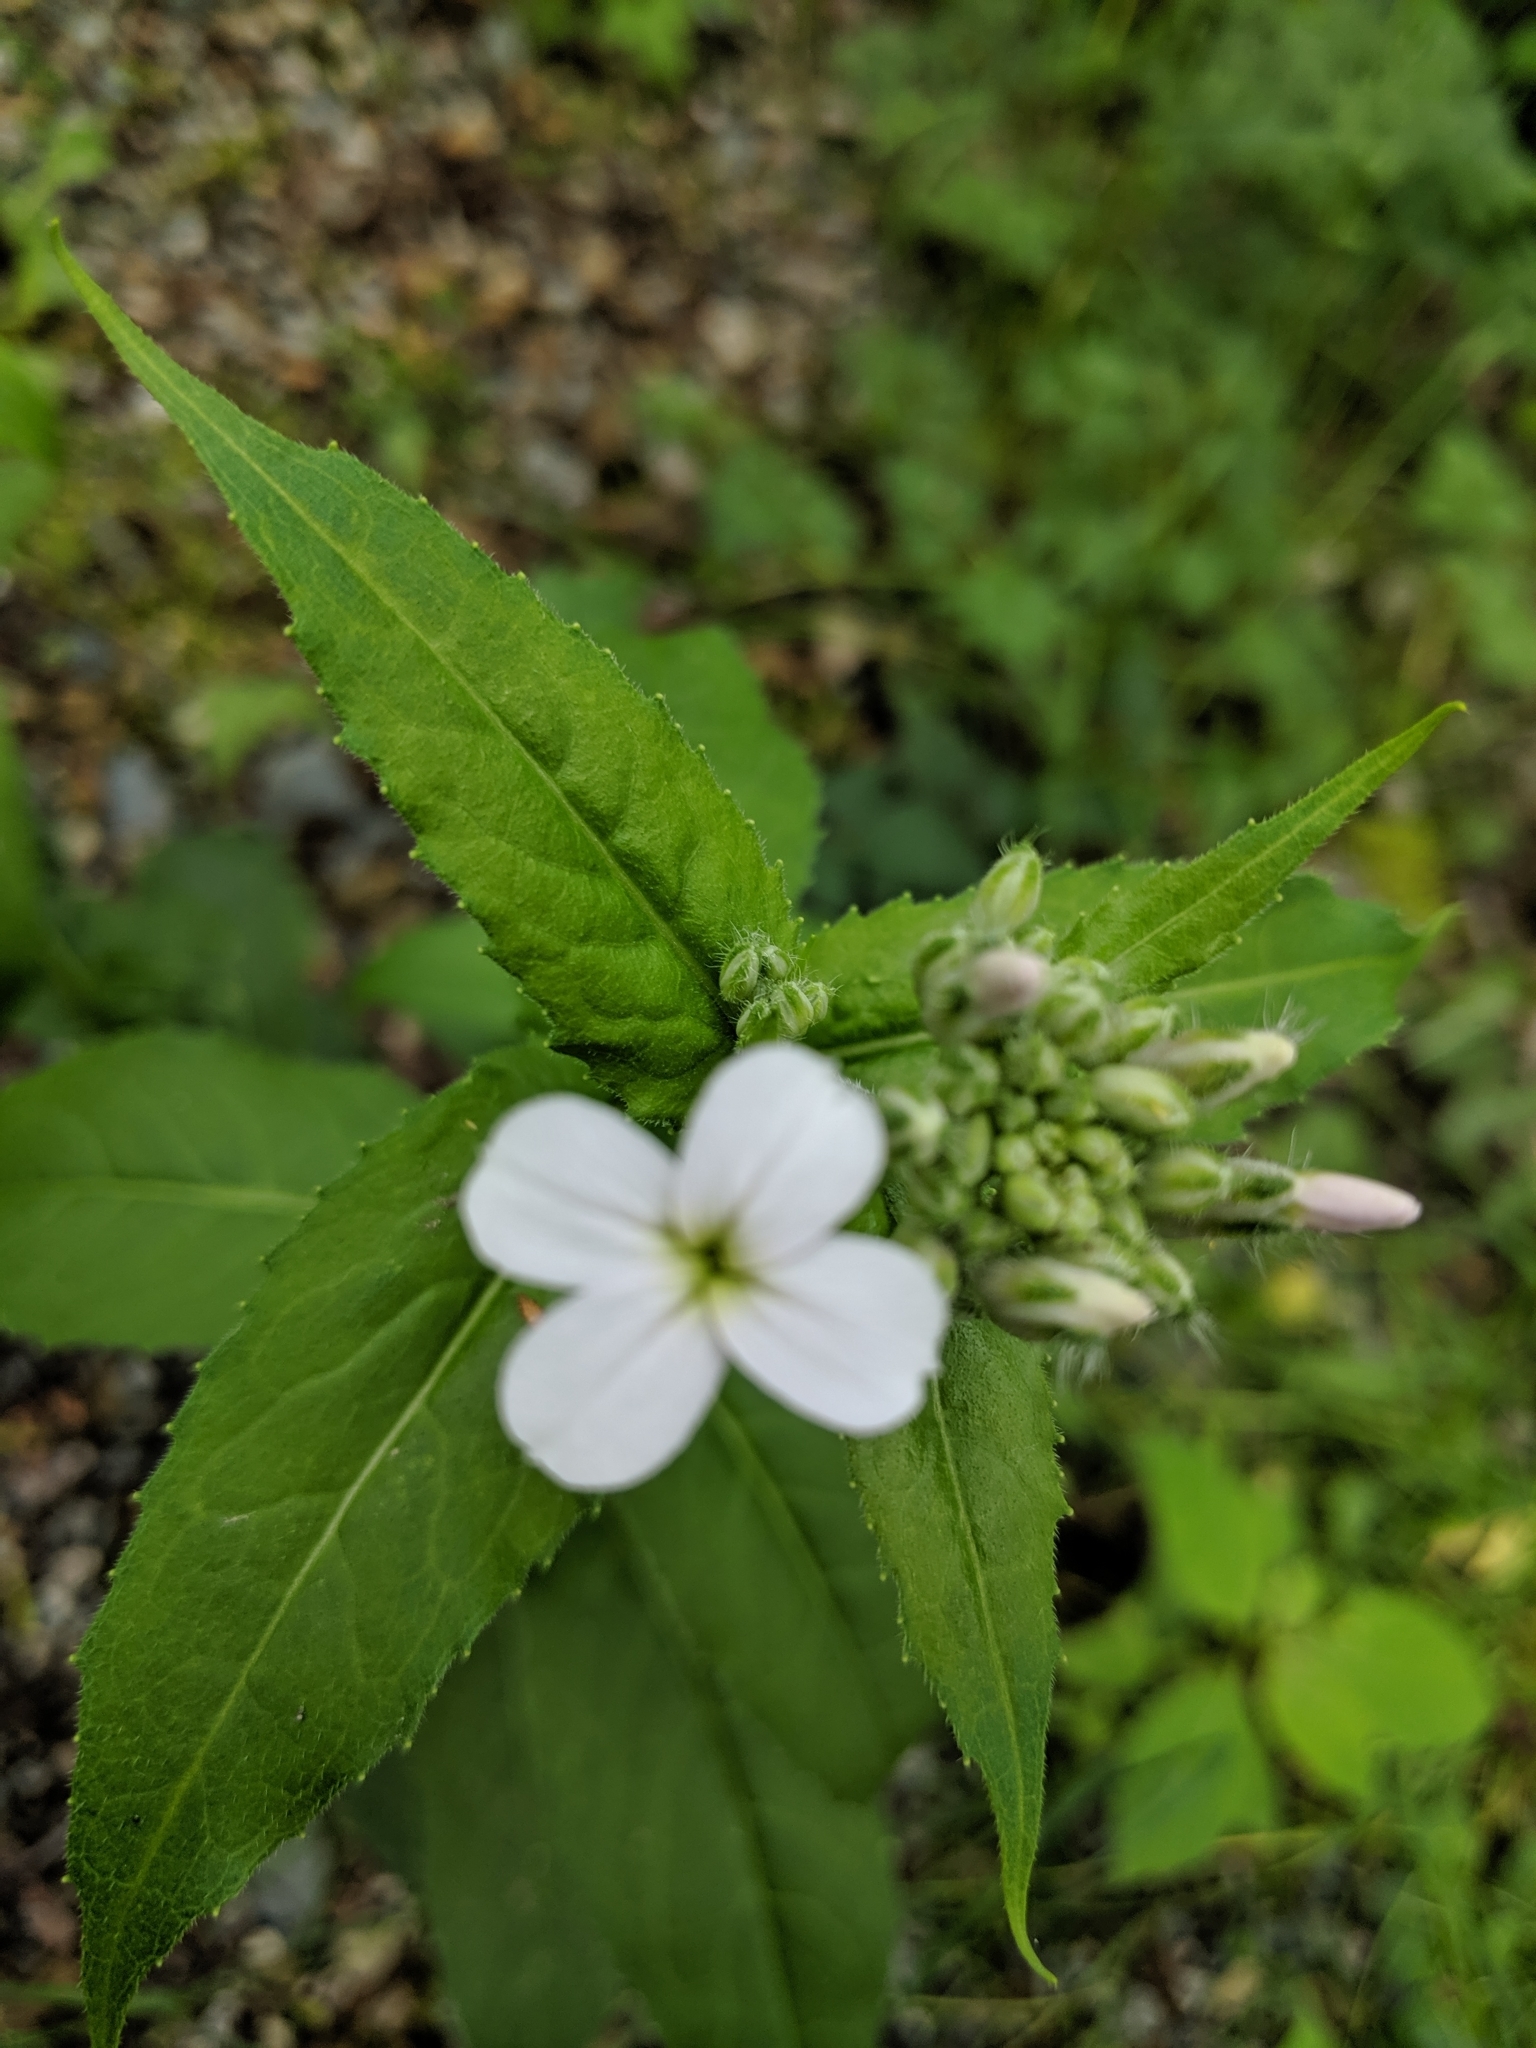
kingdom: Plantae
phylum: Tracheophyta
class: Magnoliopsida
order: Brassicales
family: Brassicaceae
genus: Hesperis
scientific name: Hesperis matronalis
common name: Dame's-violet
